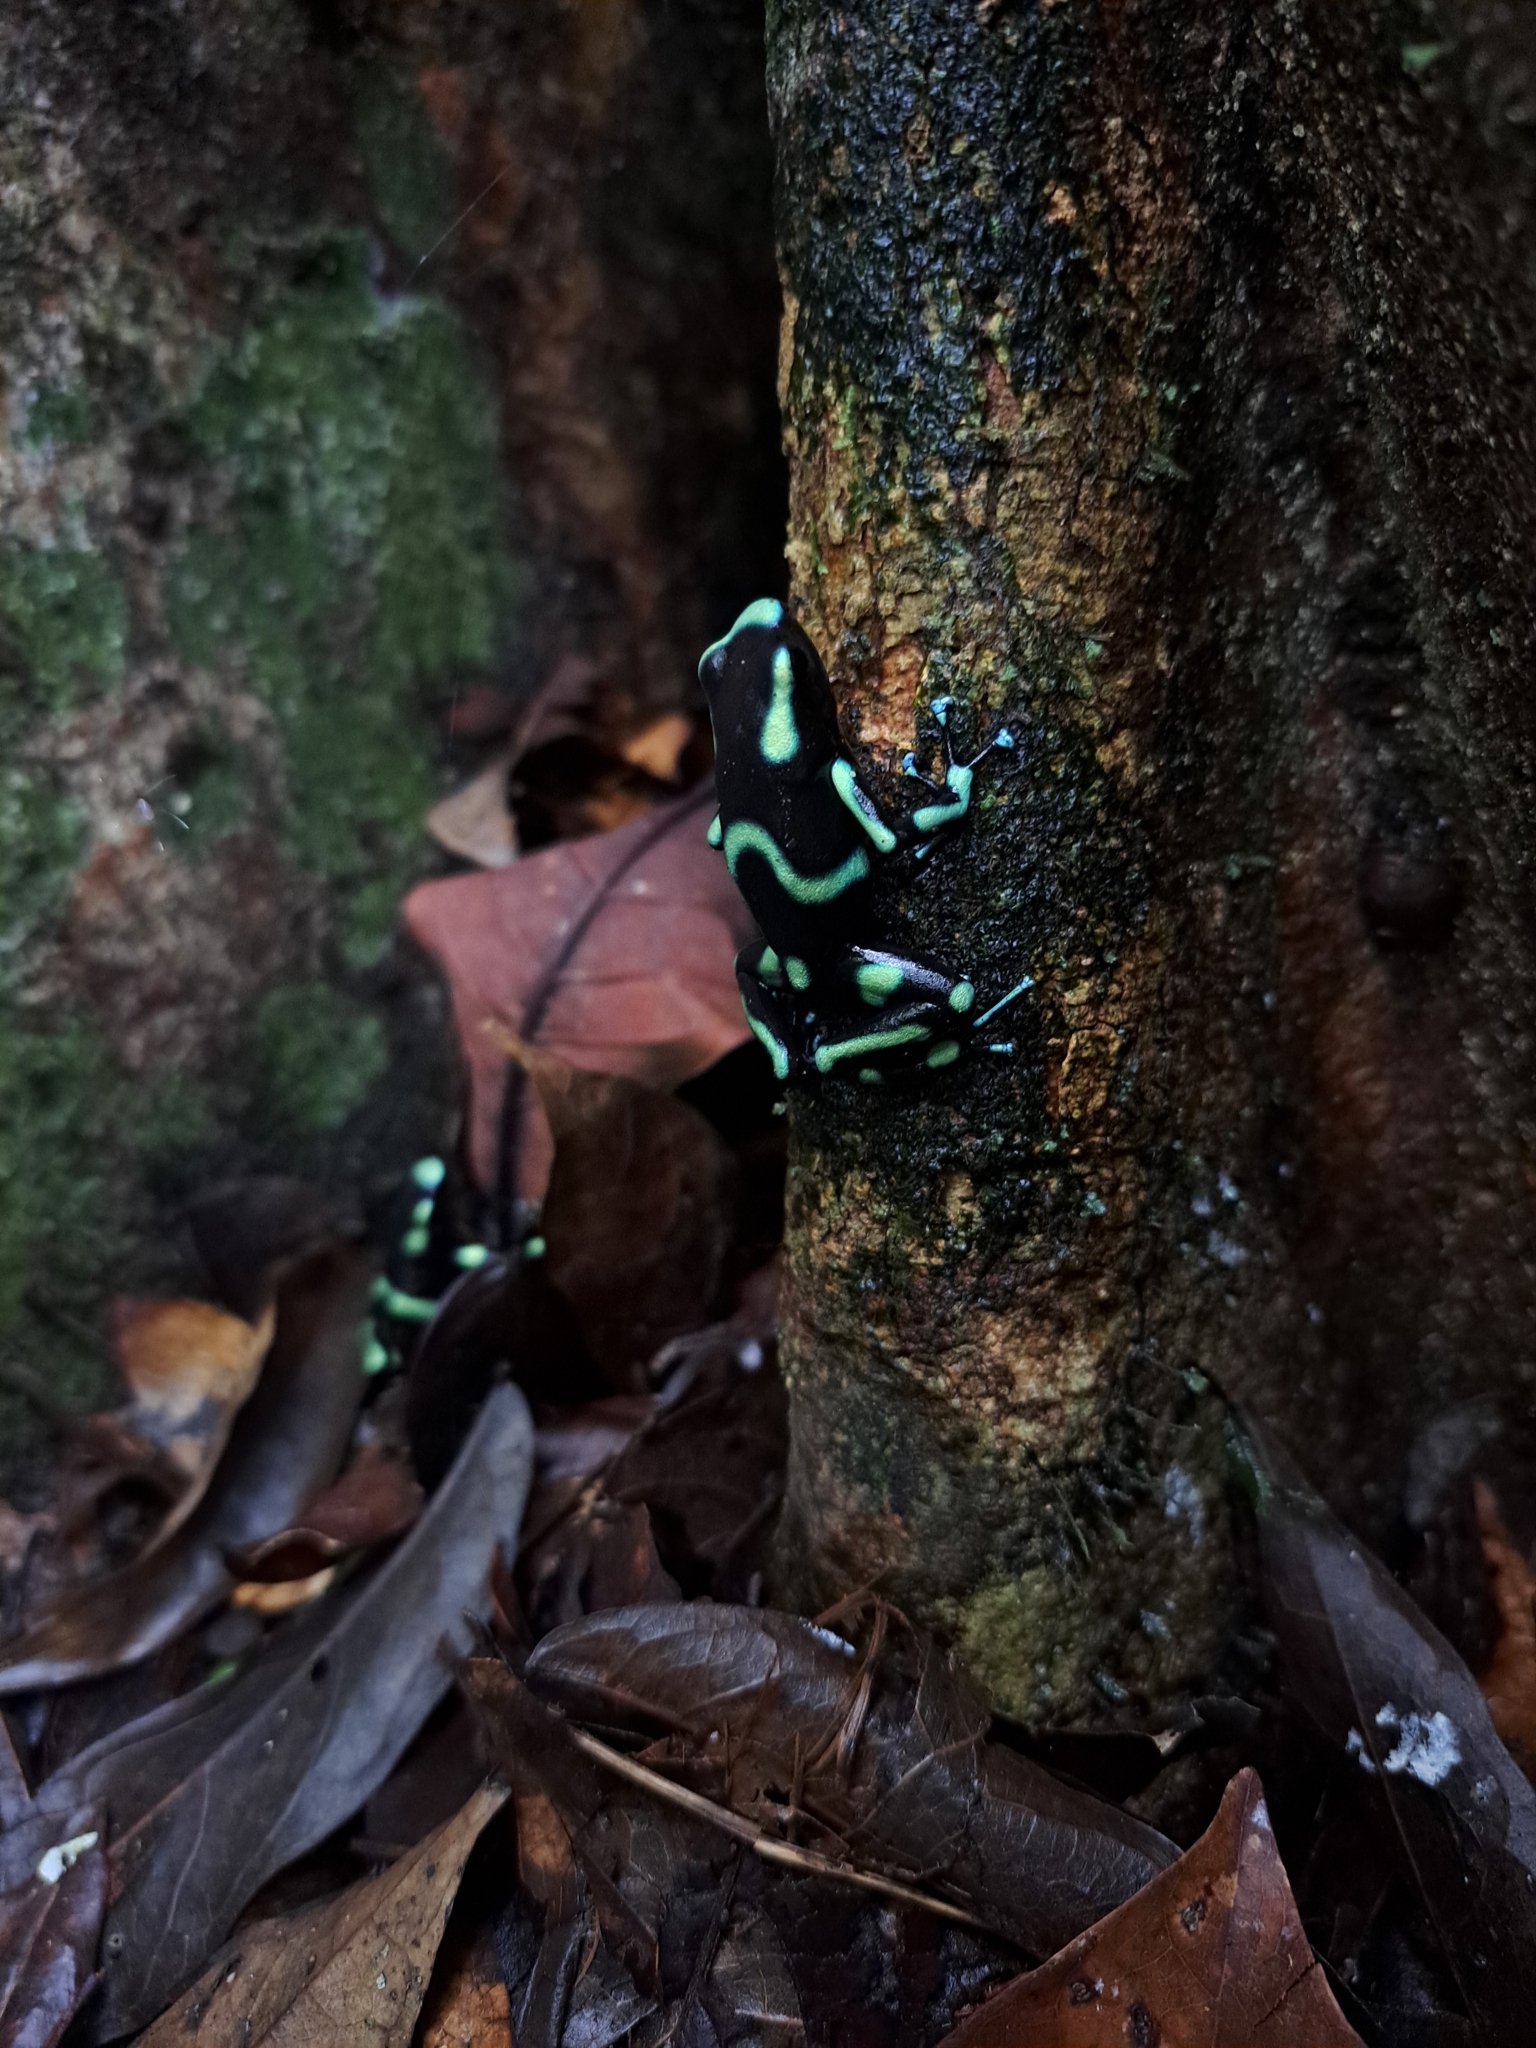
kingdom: Animalia
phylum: Chordata
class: Amphibia
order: Anura
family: Dendrobatidae
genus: Dendrobates
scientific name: Dendrobates auratus
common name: Green and black poison dart frog
